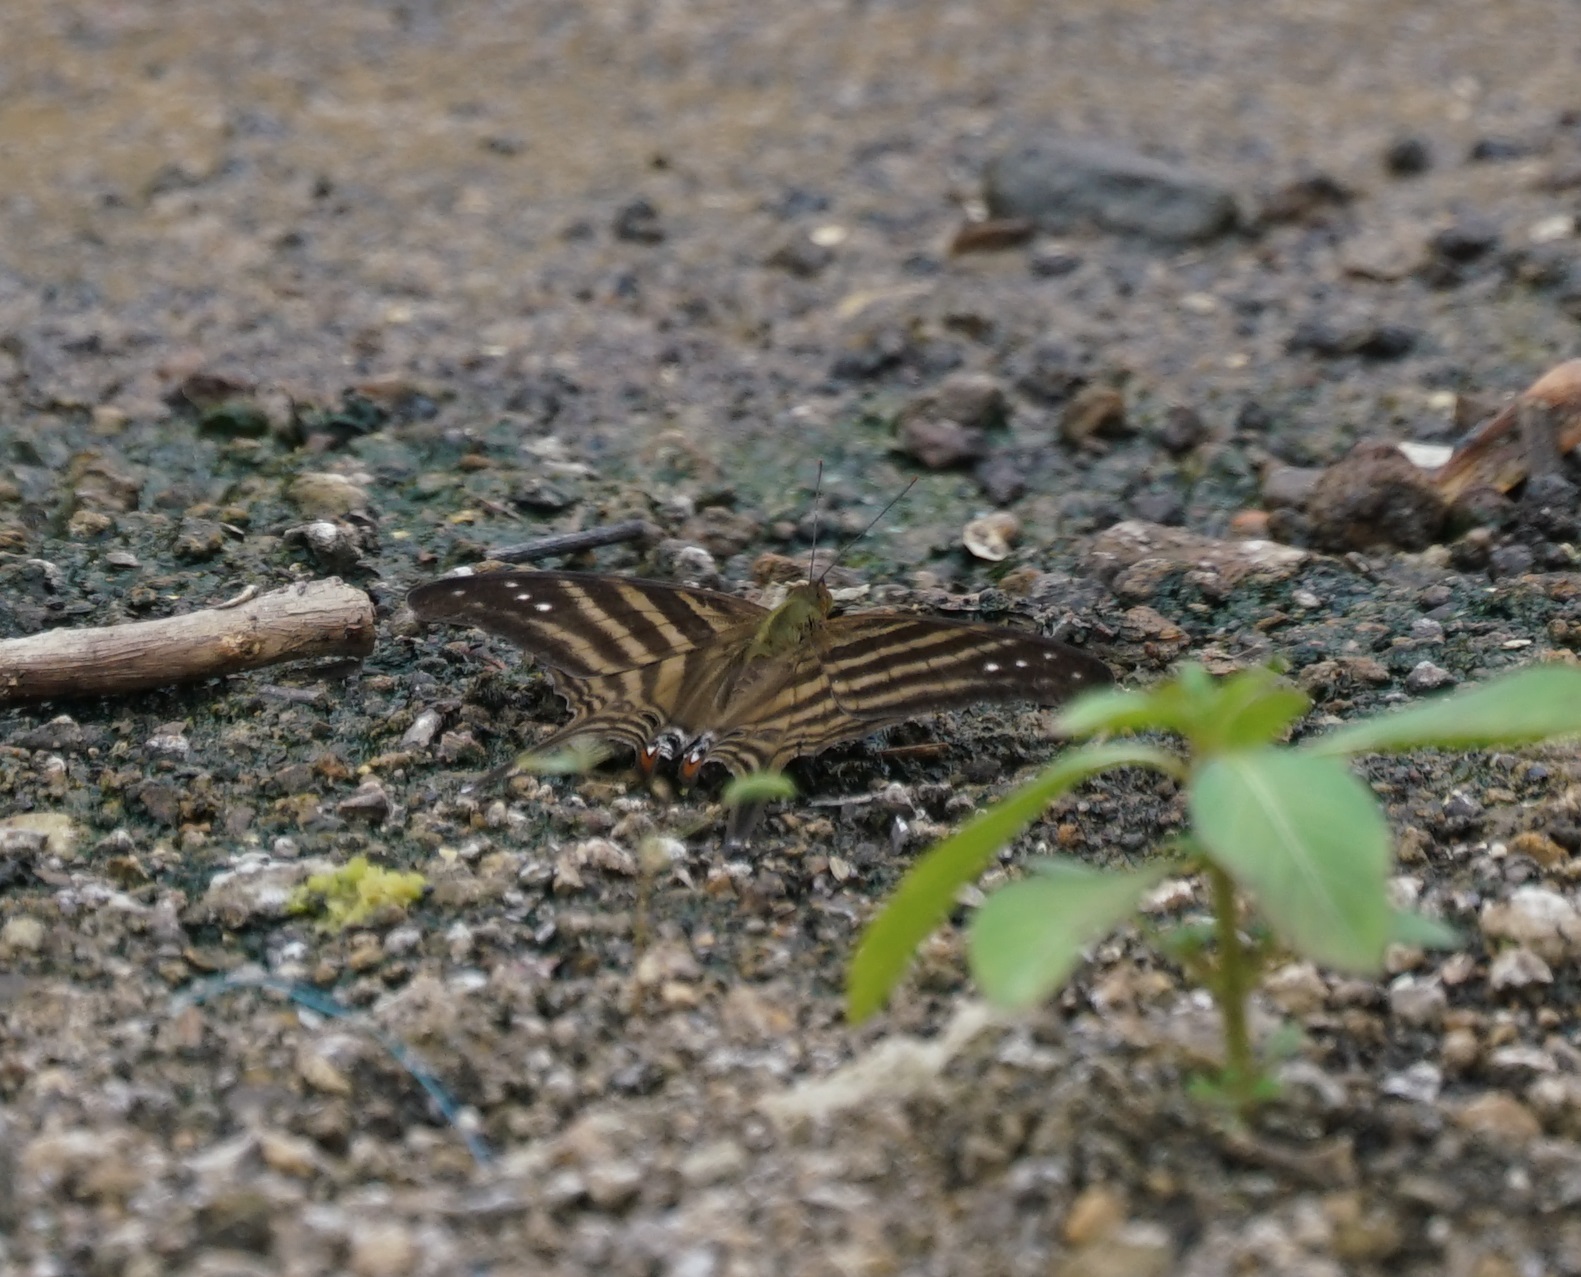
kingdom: Animalia
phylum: Arthropoda
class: Insecta
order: Lepidoptera
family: Nymphalidae
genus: Marpesia
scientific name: Marpesia chiron
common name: Many-banded daggerwing
